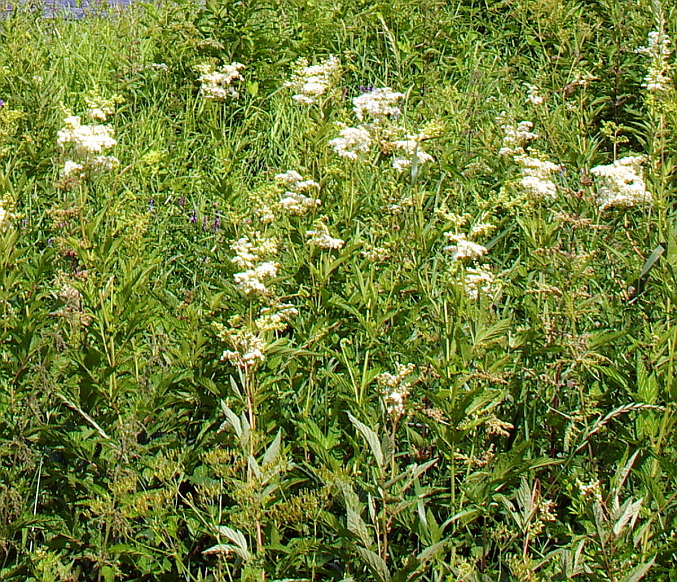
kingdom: Plantae
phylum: Tracheophyta
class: Magnoliopsida
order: Rosales
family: Rosaceae
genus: Filipendula
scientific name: Filipendula ulmaria
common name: Meadowsweet
